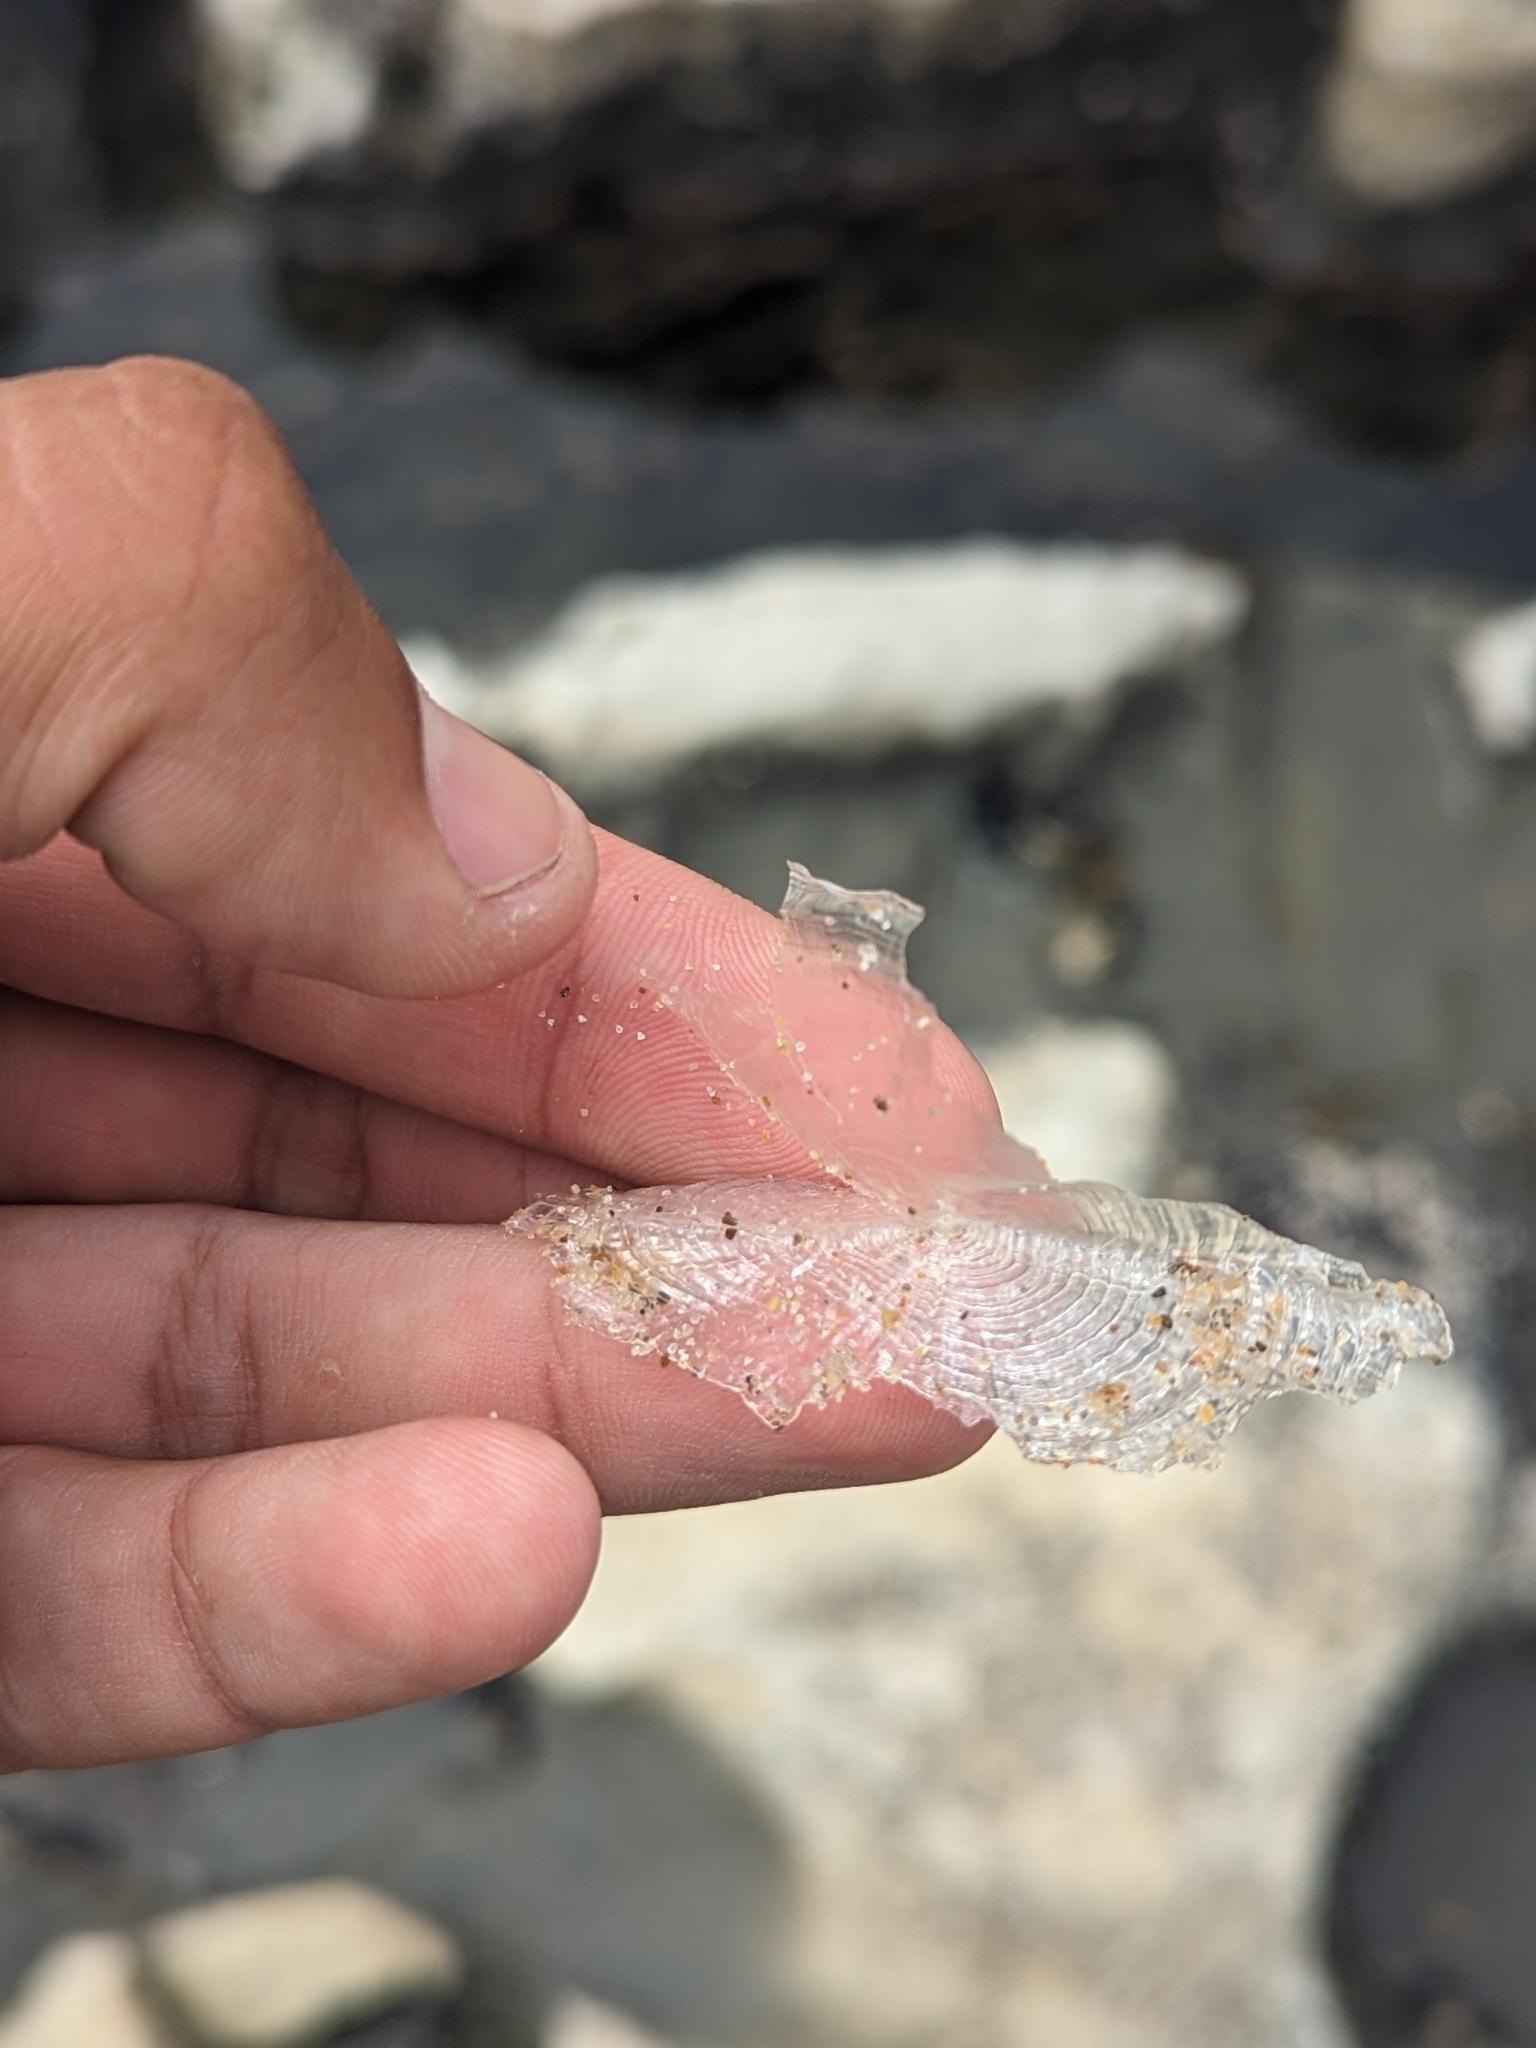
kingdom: Animalia
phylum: Cnidaria
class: Hydrozoa
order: Anthoathecata
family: Porpitidae
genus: Velella
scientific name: Velella velella
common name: By-the-wind-sailor
